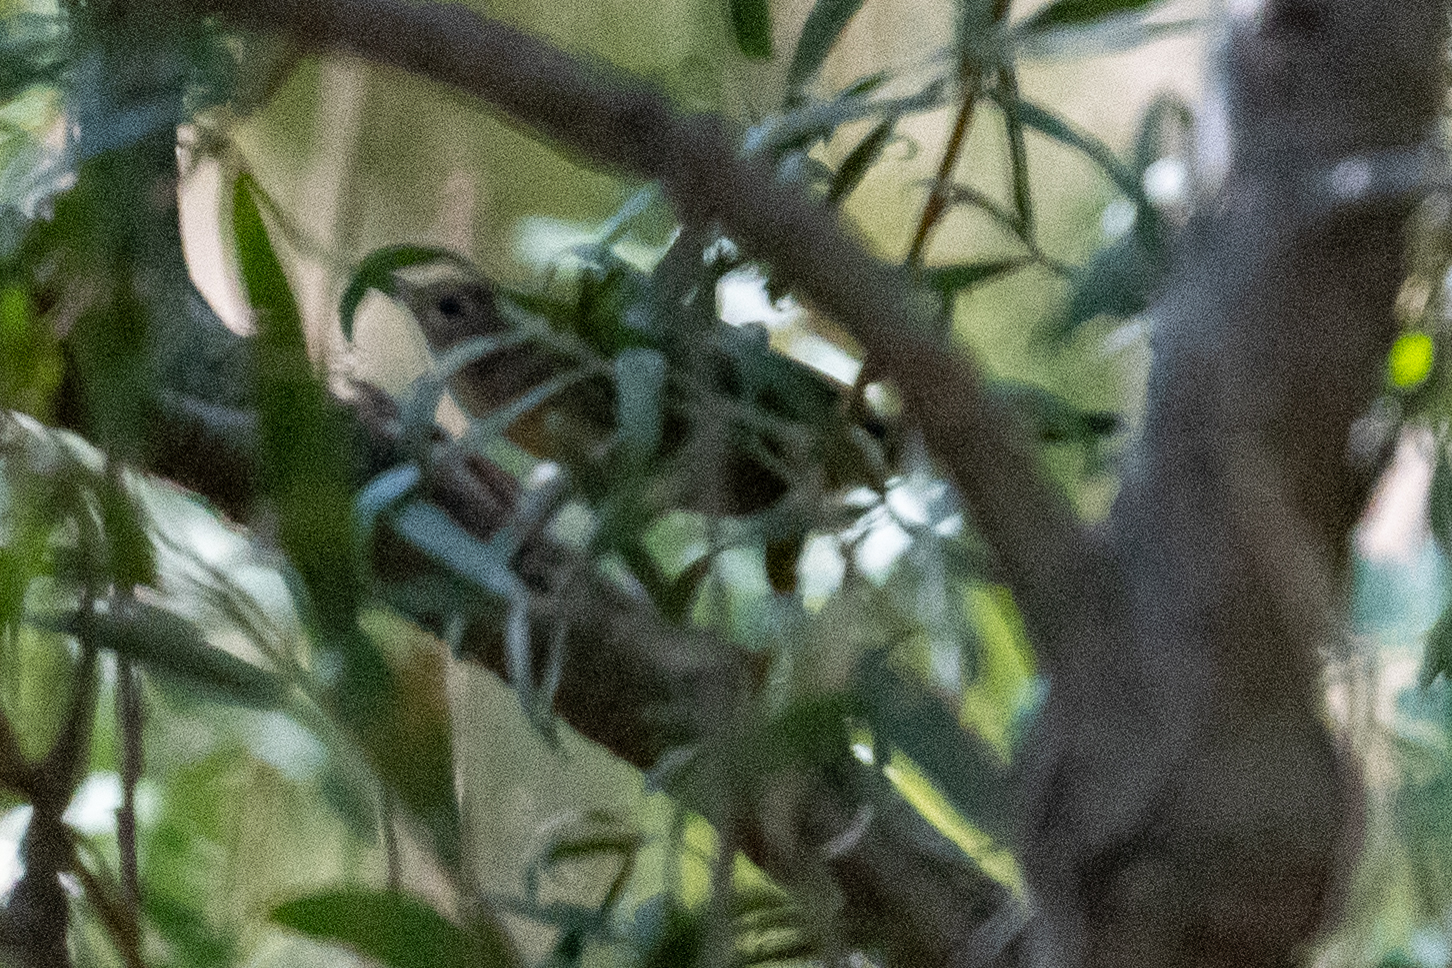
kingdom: Animalia
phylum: Chordata
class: Aves
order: Passeriformes
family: Parulidae
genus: Geothlypis
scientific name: Geothlypis trichas
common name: Common yellowthroat
